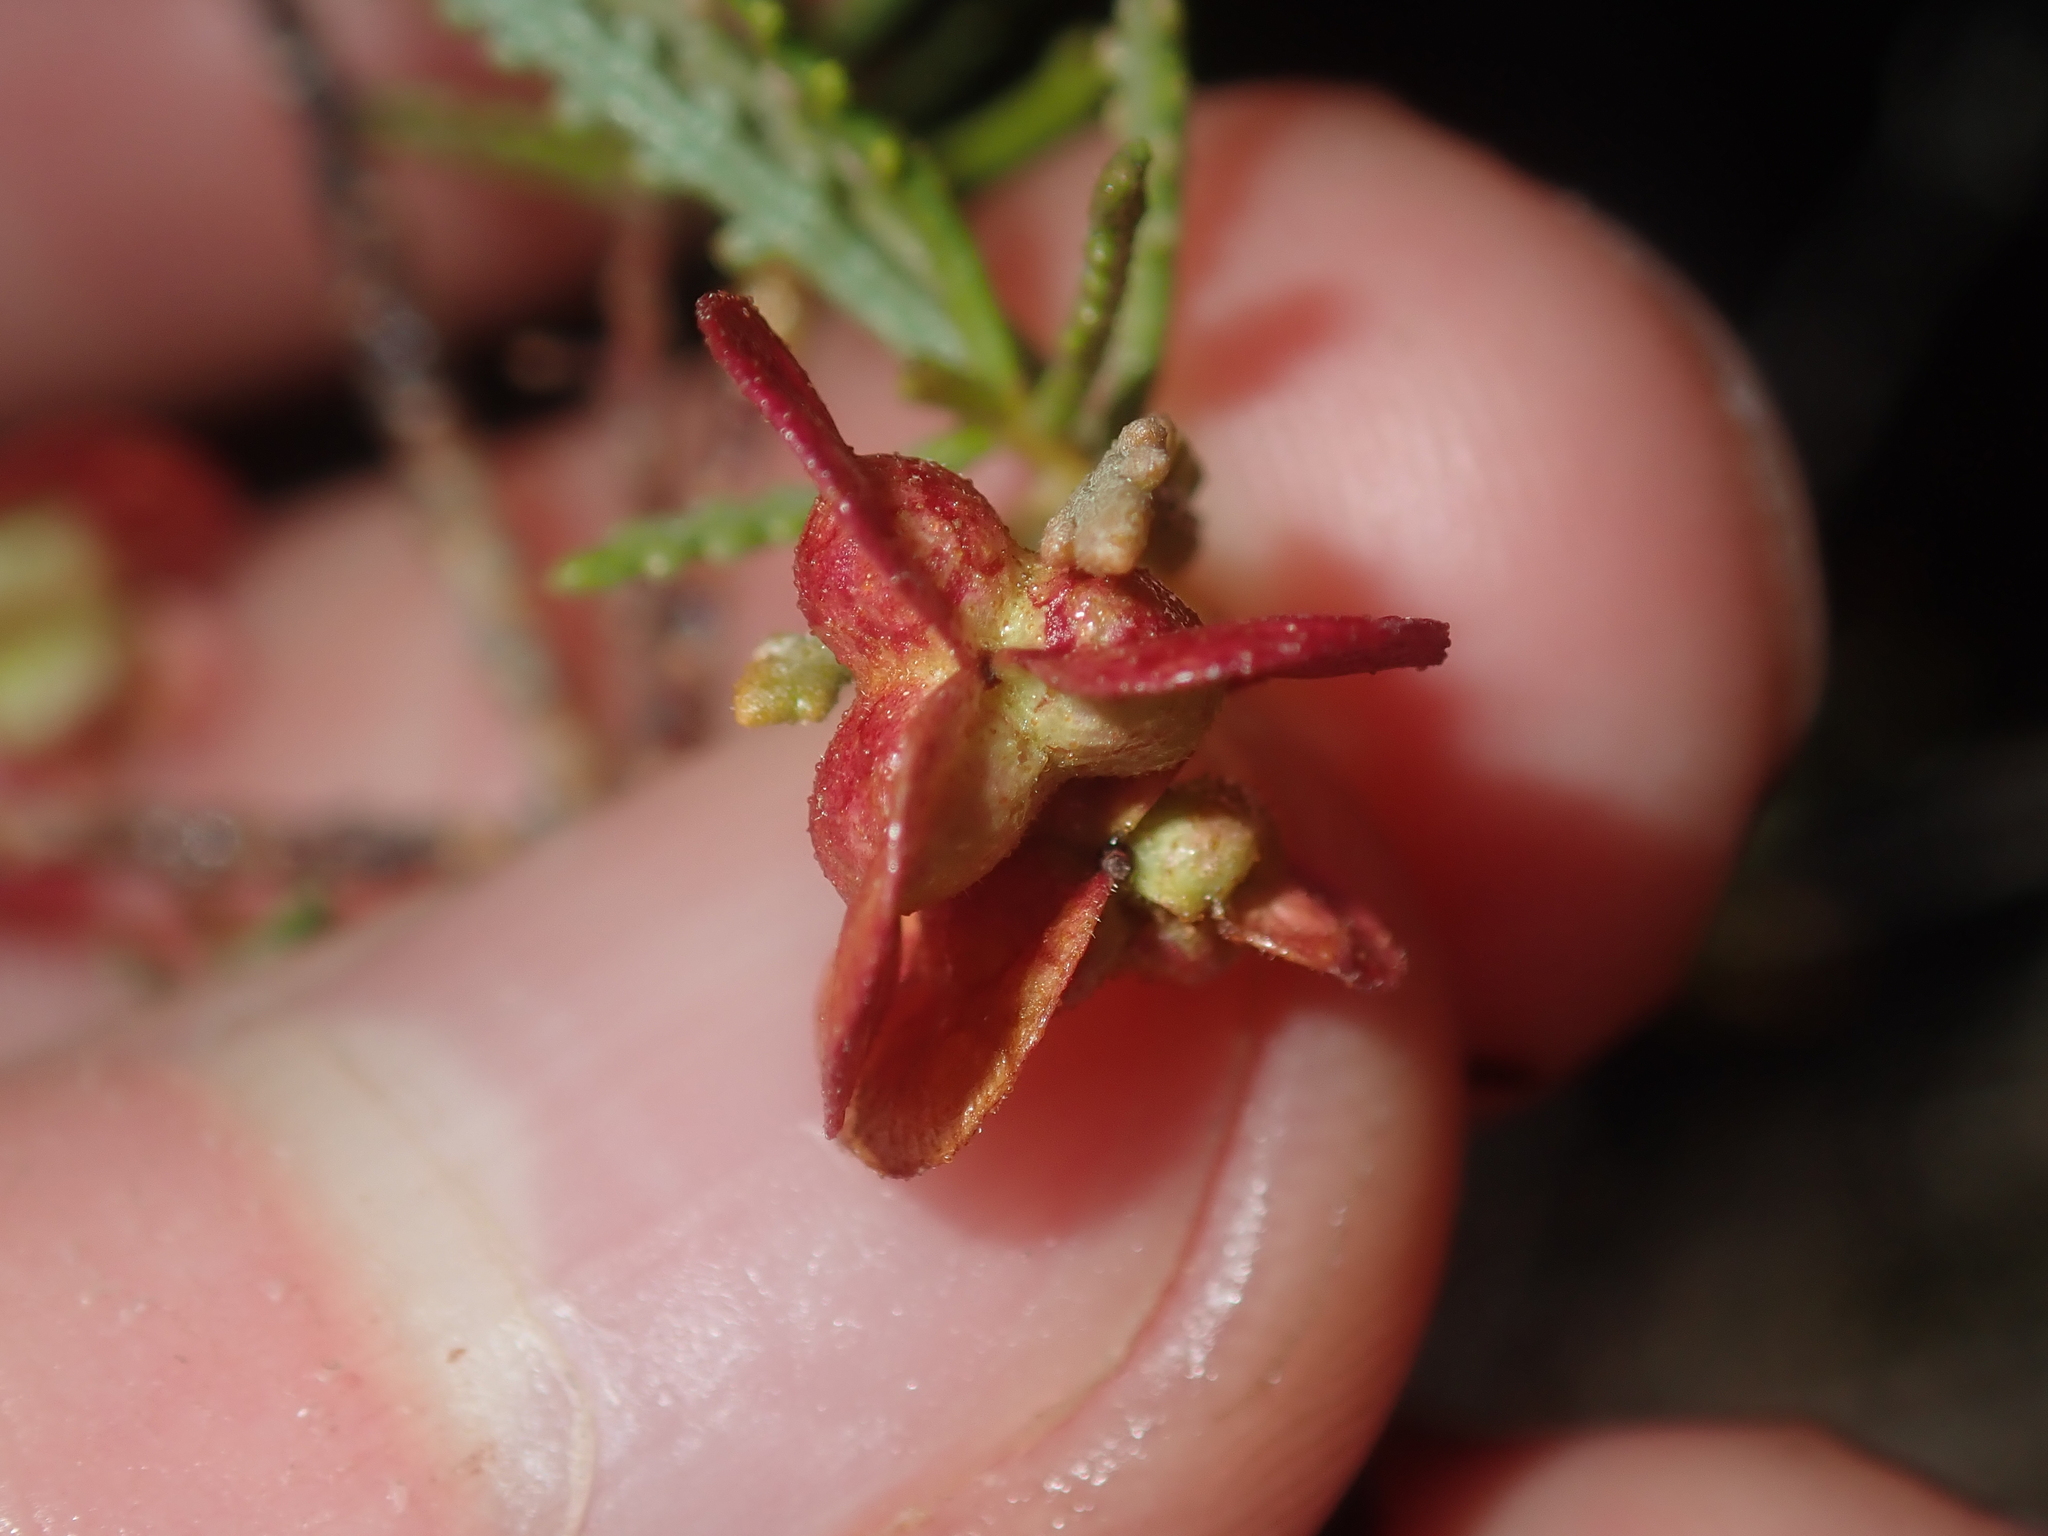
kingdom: Plantae
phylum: Tracheophyta
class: Magnoliopsida
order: Sapindales
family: Sapindaceae
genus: Dodonaea
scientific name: Dodonaea lobulata
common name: Lobe-leaf hopbush
